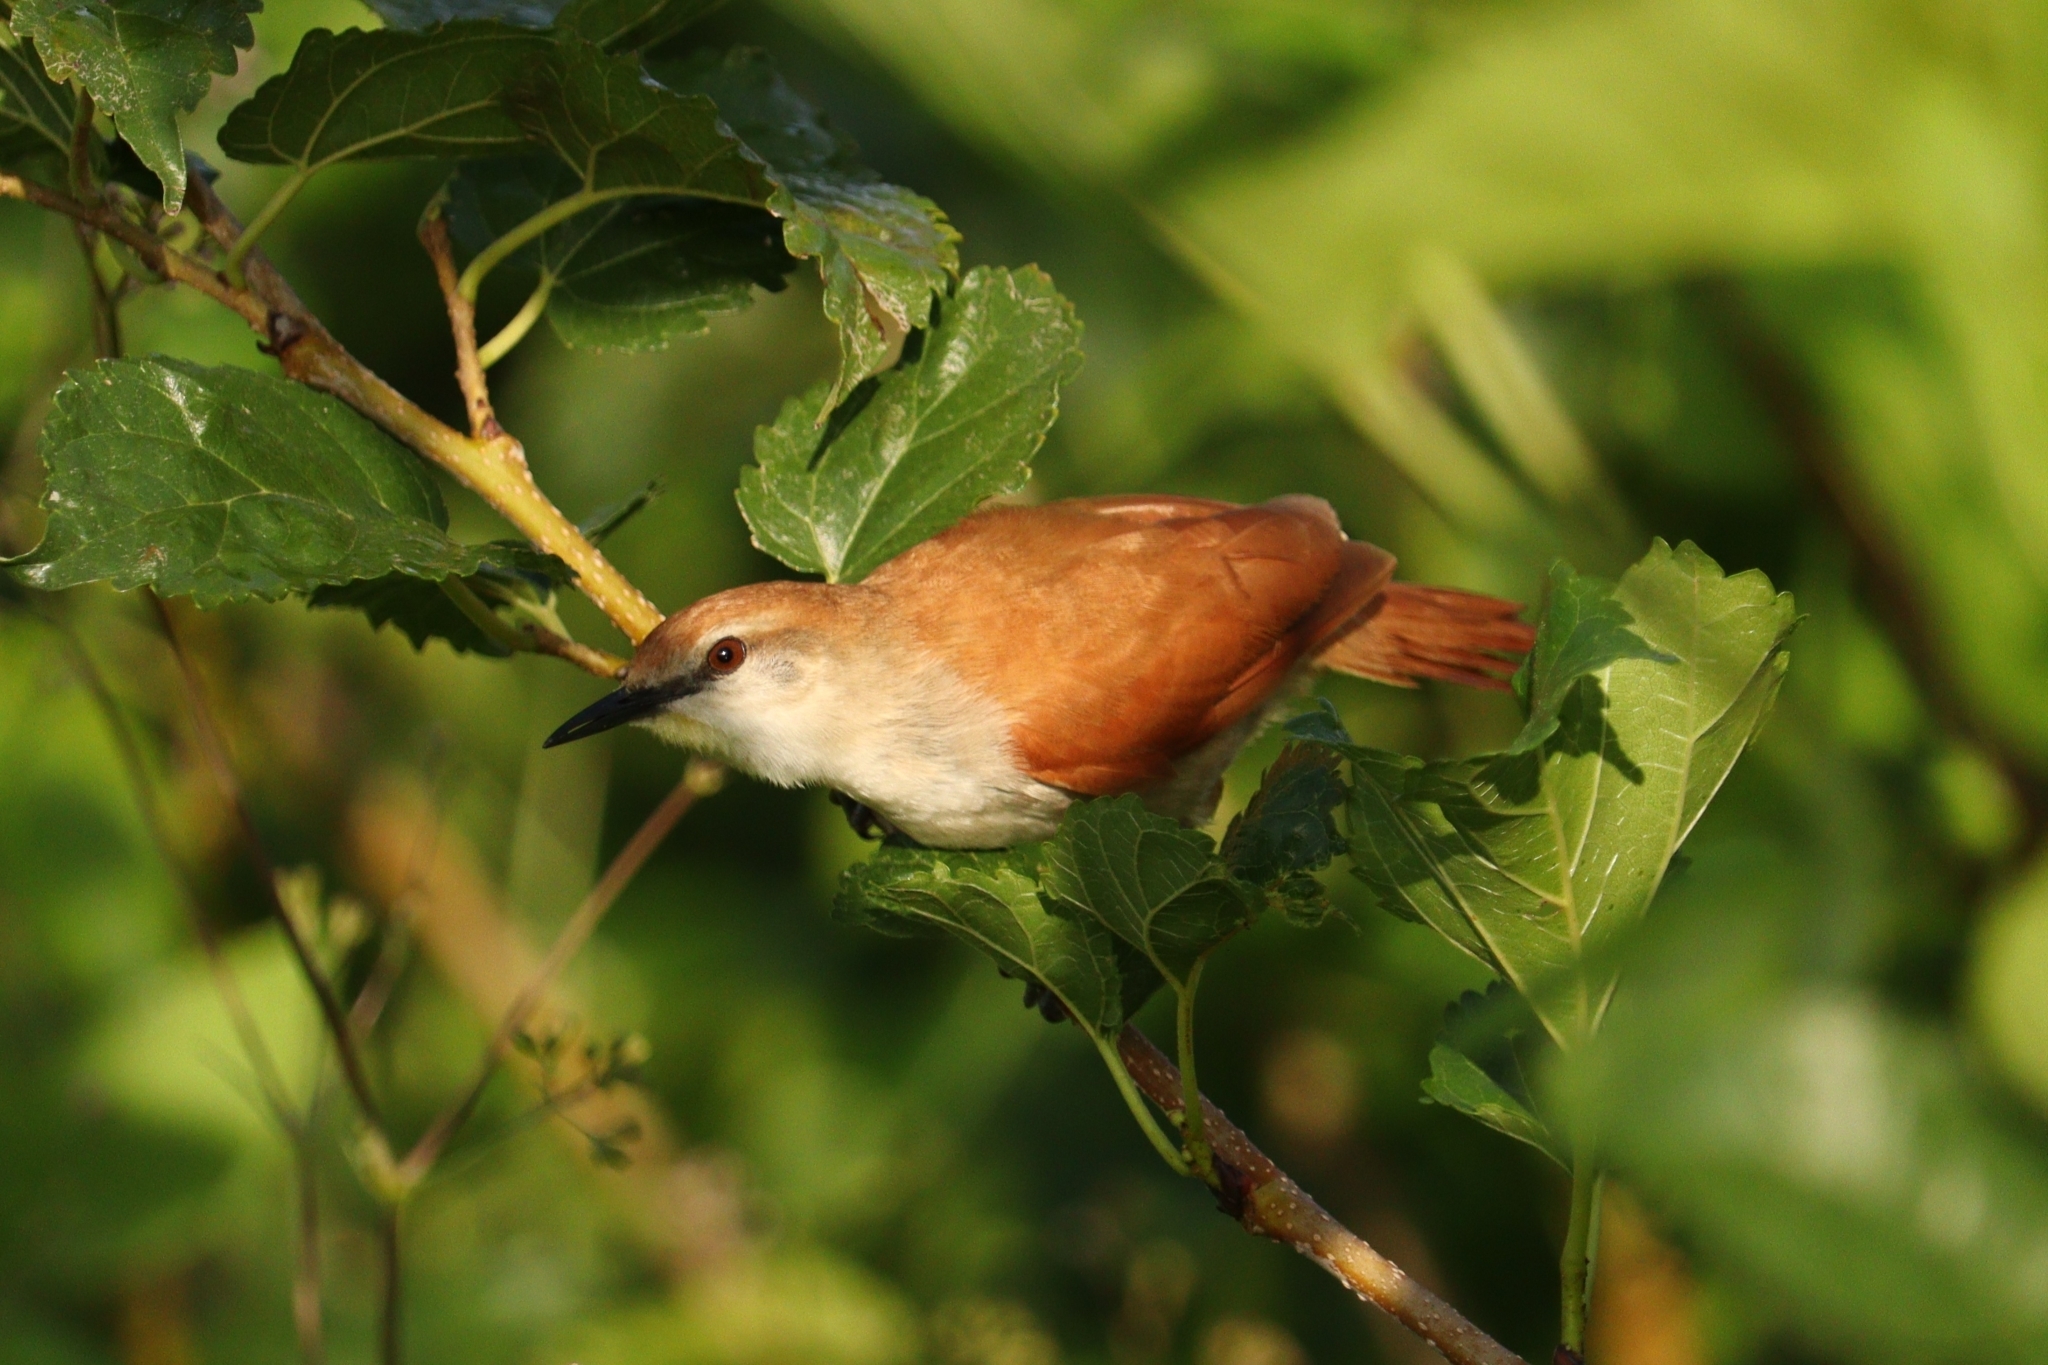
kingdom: Animalia
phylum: Chordata
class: Aves
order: Passeriformes
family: Furnariidae
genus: Certhiaxis
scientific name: Certhiaxis cinnamomeus
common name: Yellow-chinned spinetail
